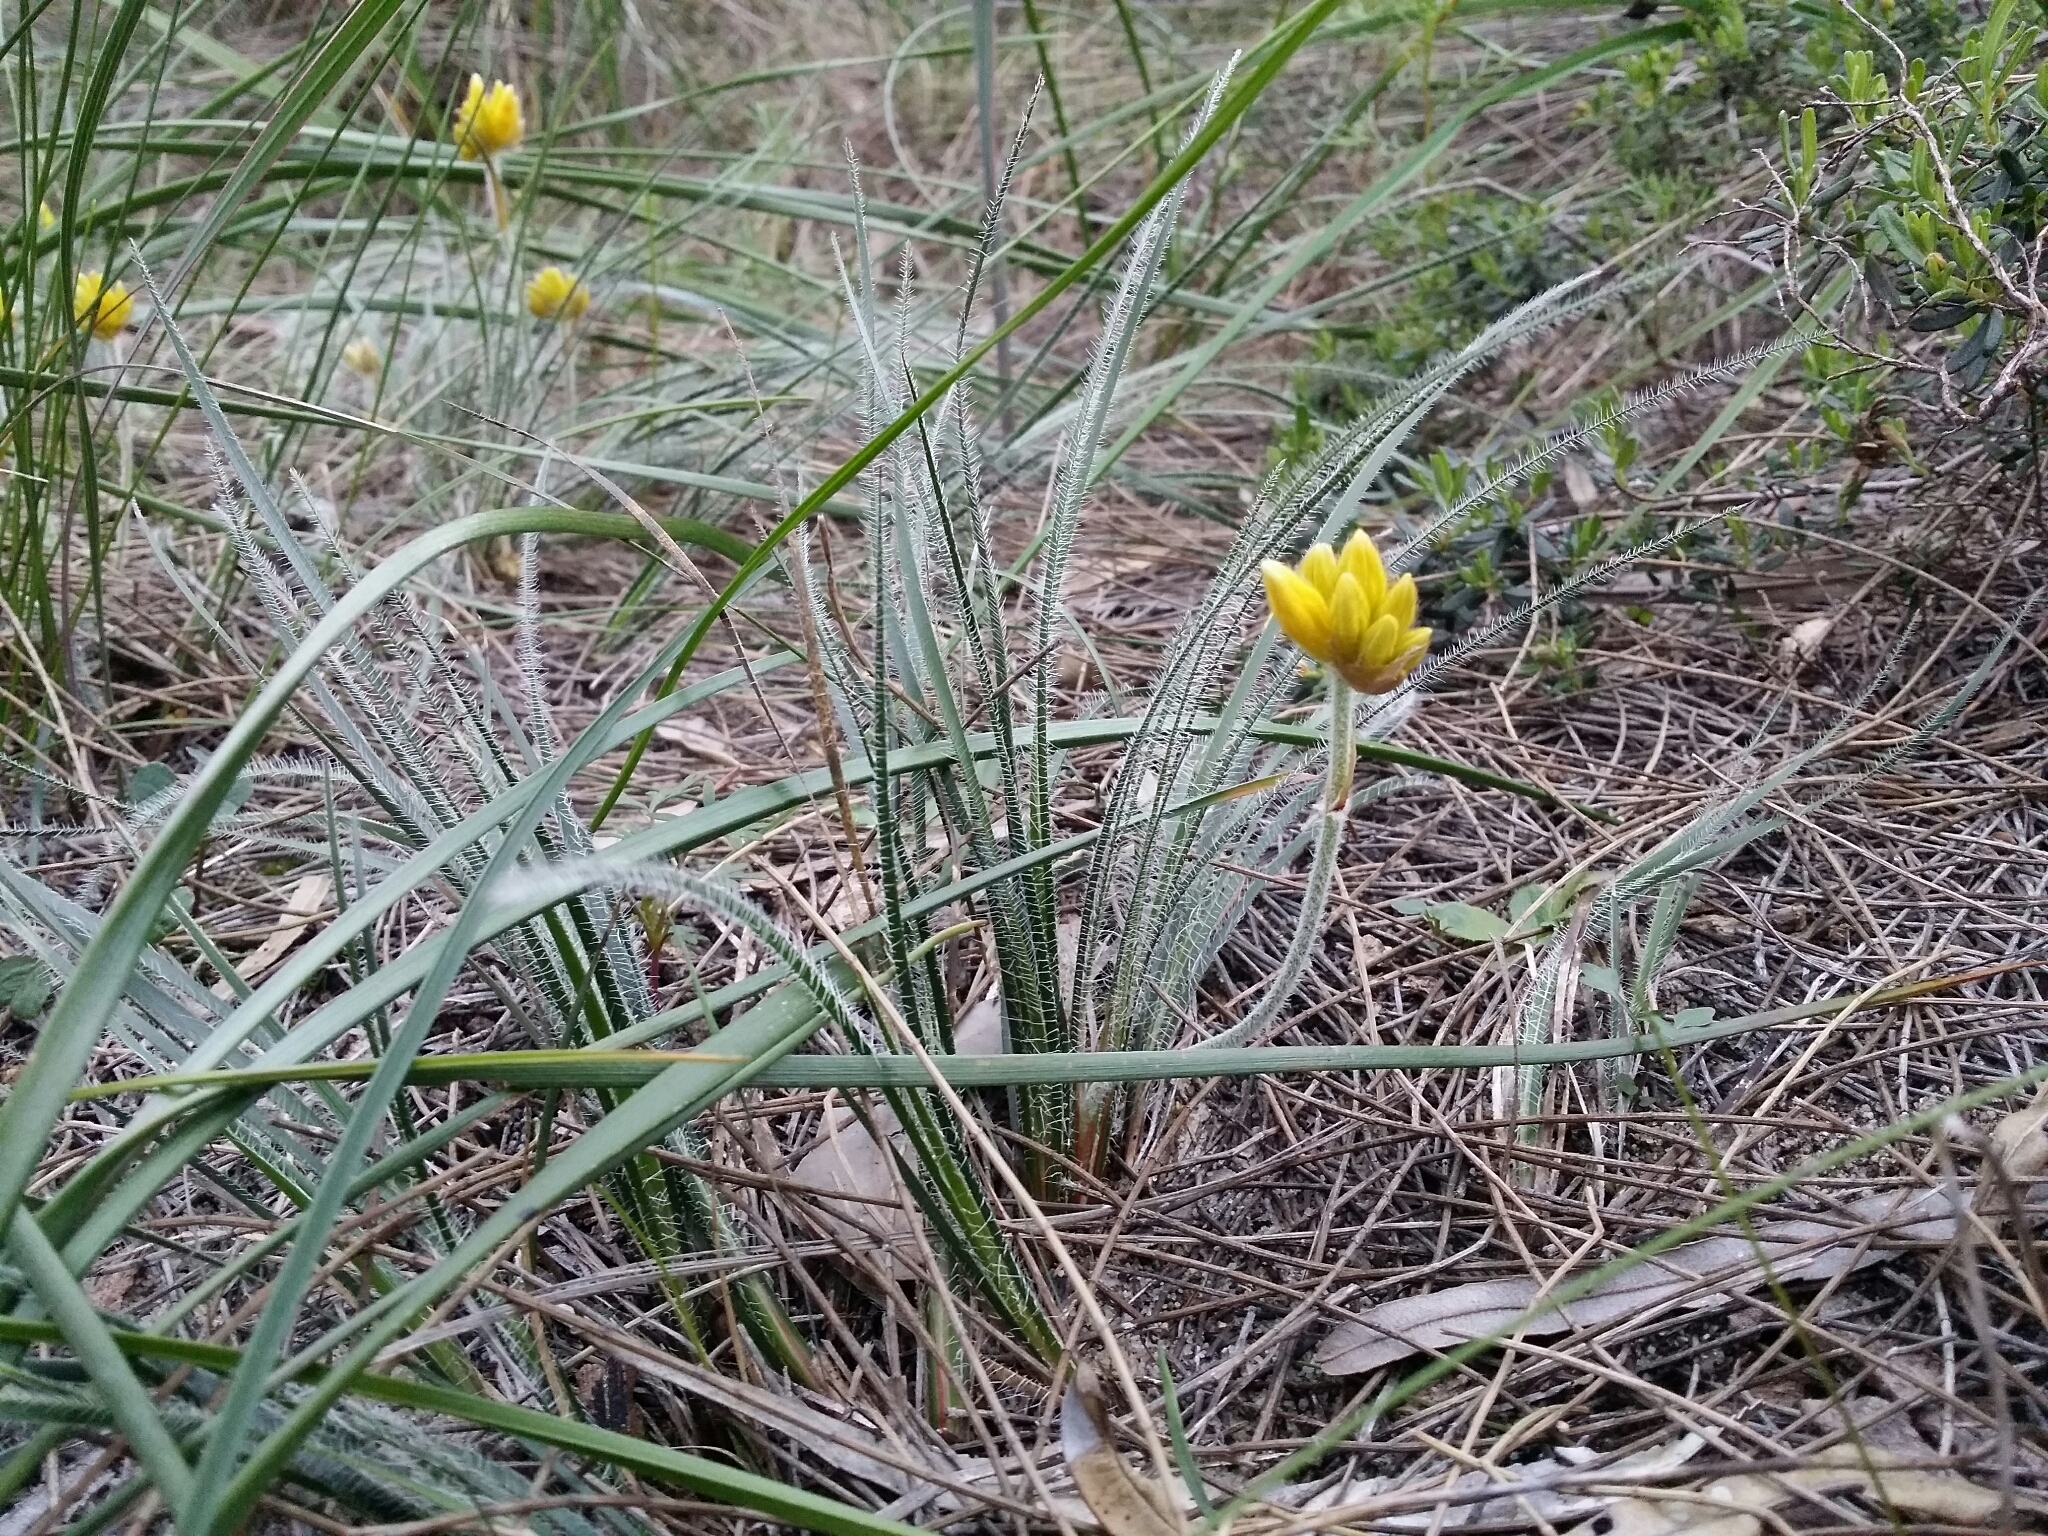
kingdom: Plantae
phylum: Tracheophyta
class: Liliopsida
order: Commelinales
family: Haemodoraceae
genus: Conostylis
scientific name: Conostylis setigera
